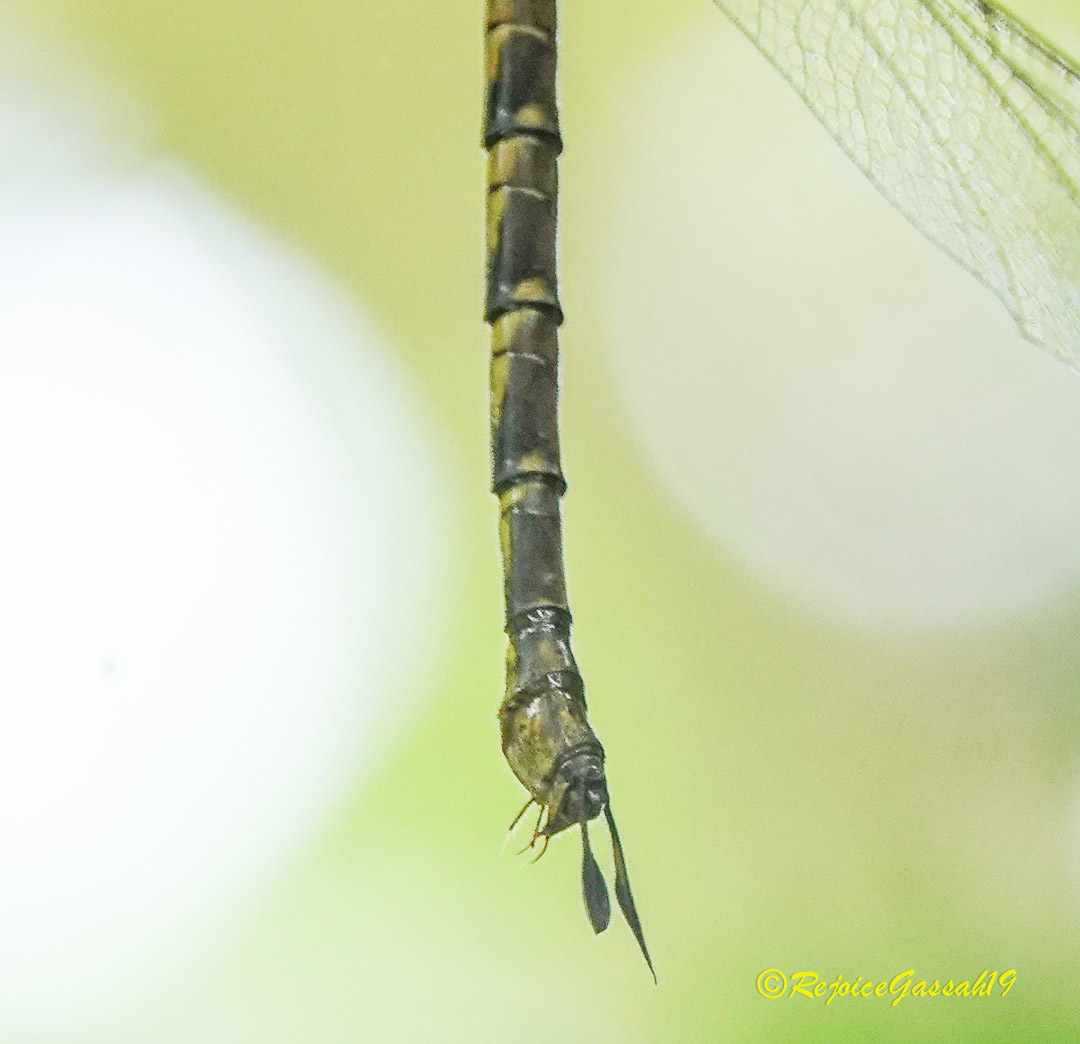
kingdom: Animalia
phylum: Arthropoda
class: Insecta
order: Odonata
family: Aeshnidae
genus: Gynacantha
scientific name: Gynacantha dravida
